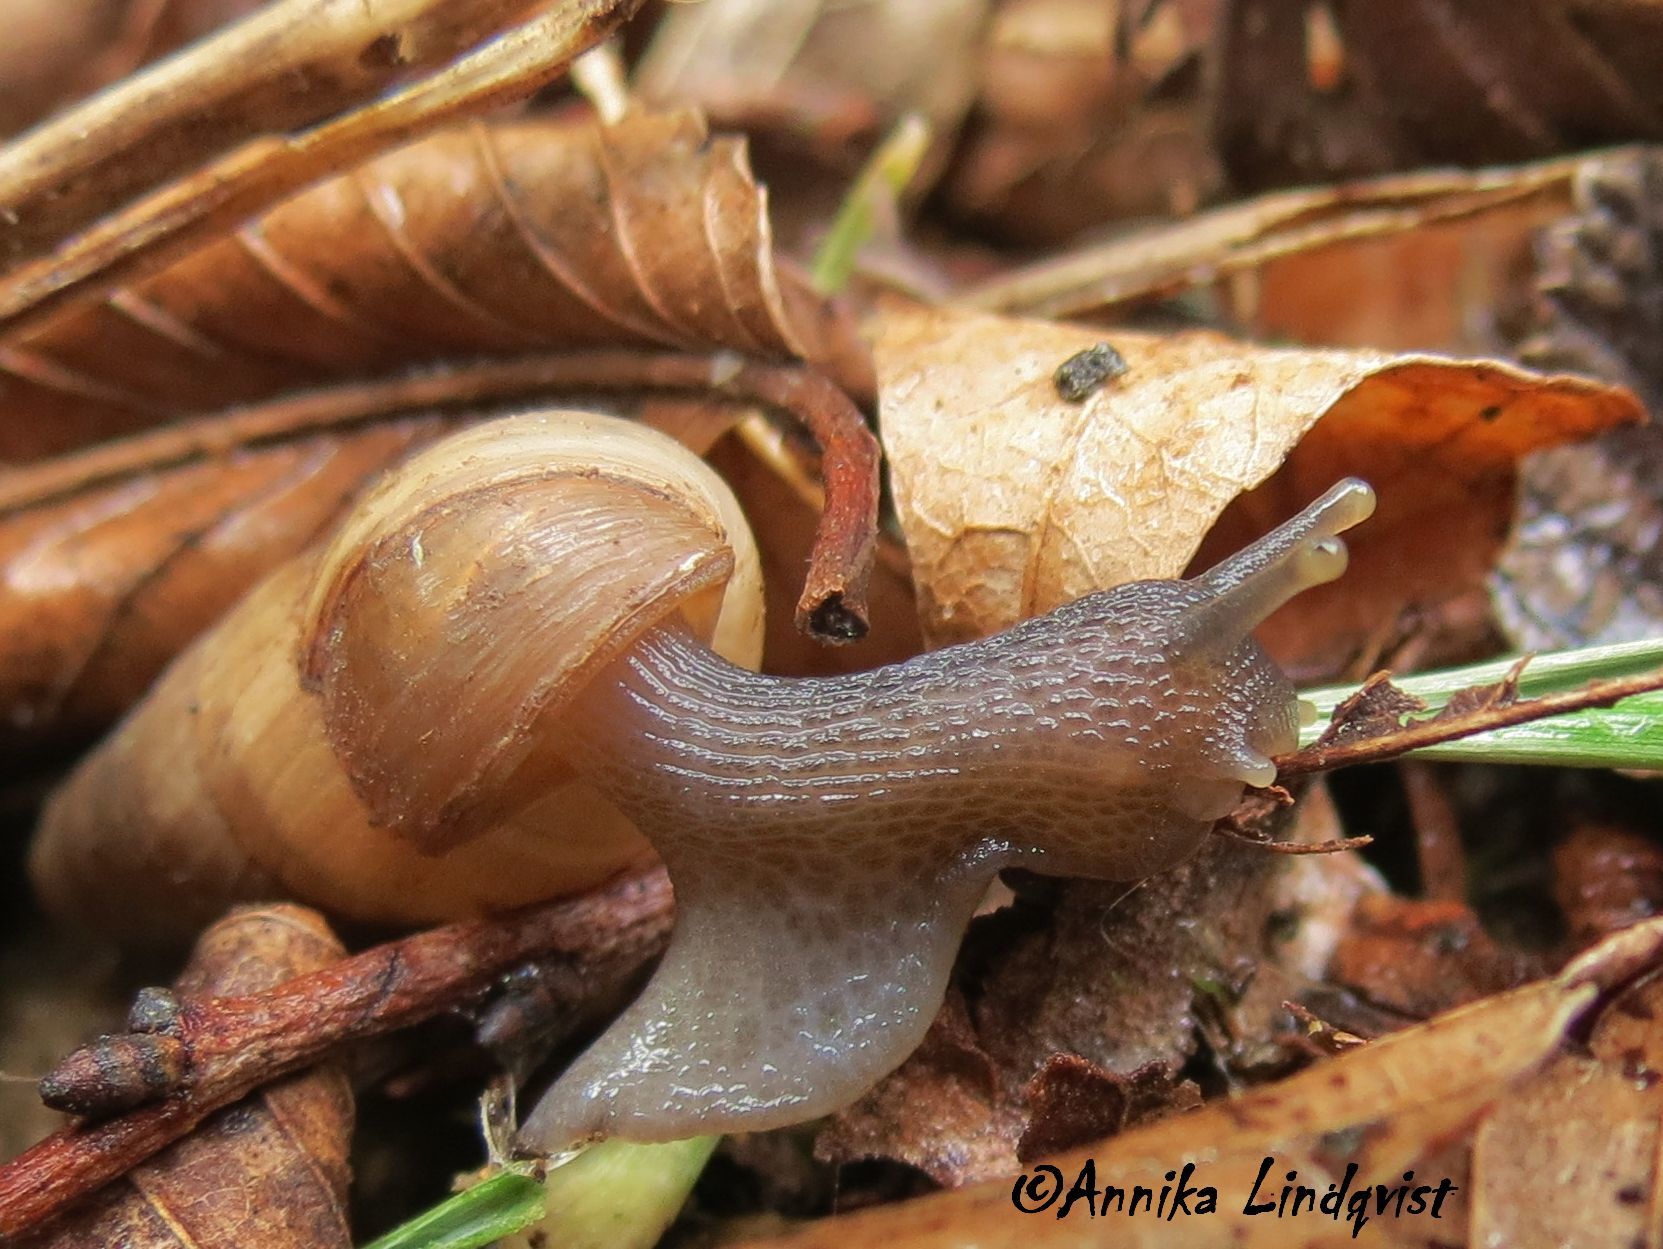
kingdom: Animalia
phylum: Mollusca
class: Gastropoda
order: Stylommatophora
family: Achatinidae
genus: Rumina
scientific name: Rumina decollata
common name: Decollate snail
